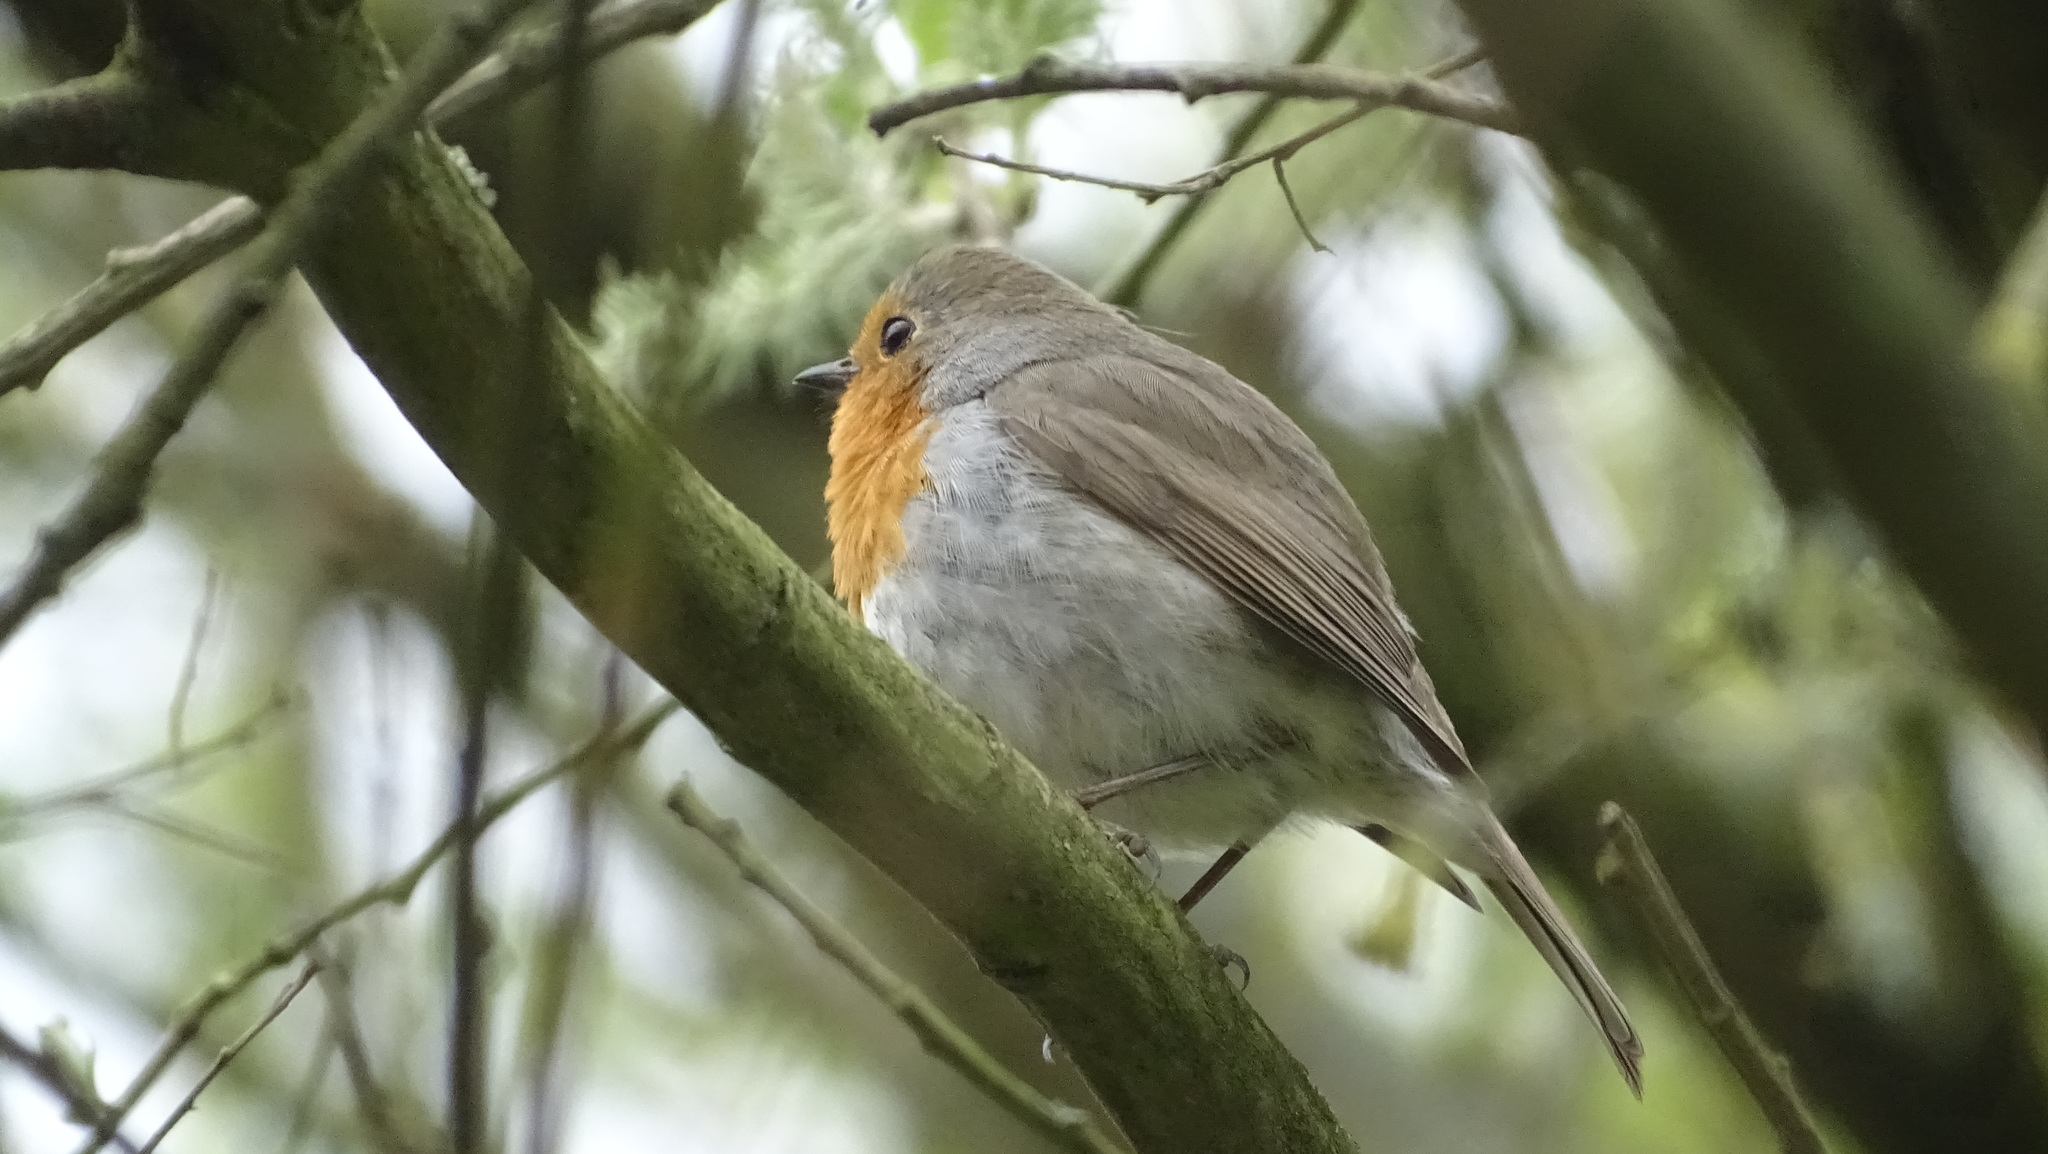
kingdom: Animalia
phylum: Chordata
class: Aves
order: Passeriformes
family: Muscicapidae
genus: Erithacus
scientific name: Erithacus rubecula
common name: European robin
